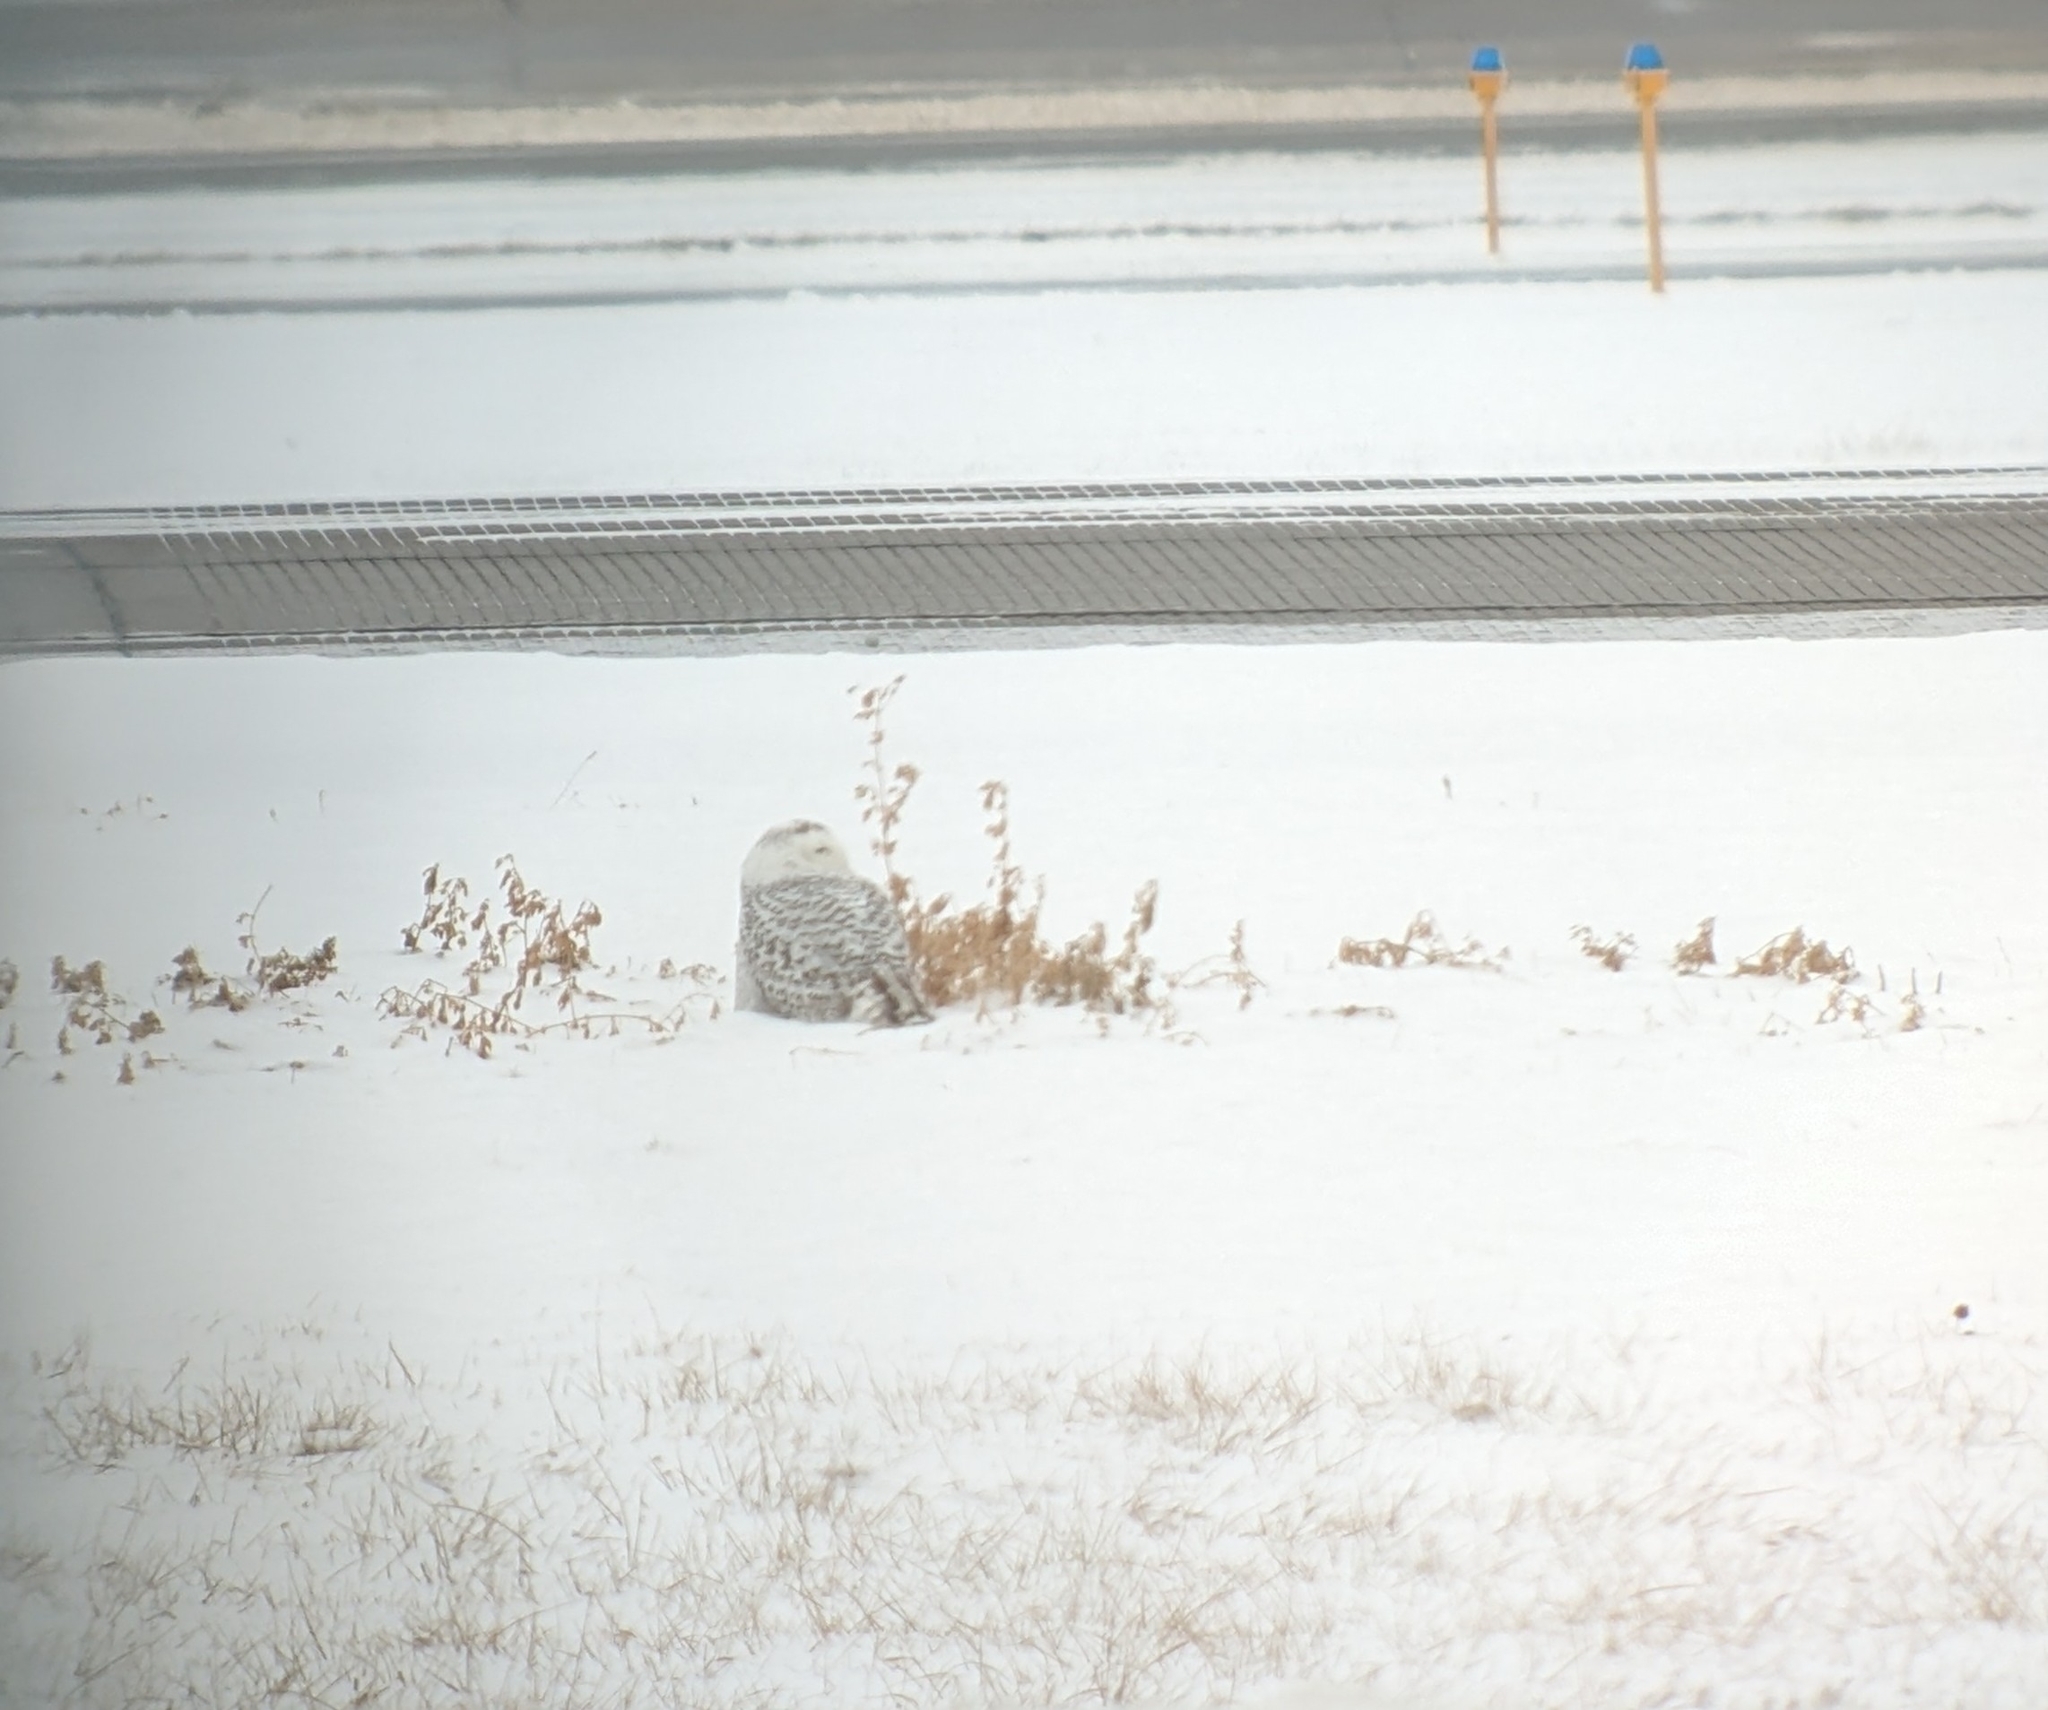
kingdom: Animalia
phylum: Chordata
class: Aves
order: Strigiformes
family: Strigidae
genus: Bubo
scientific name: Bubo scandiacus
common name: Snowy owl
